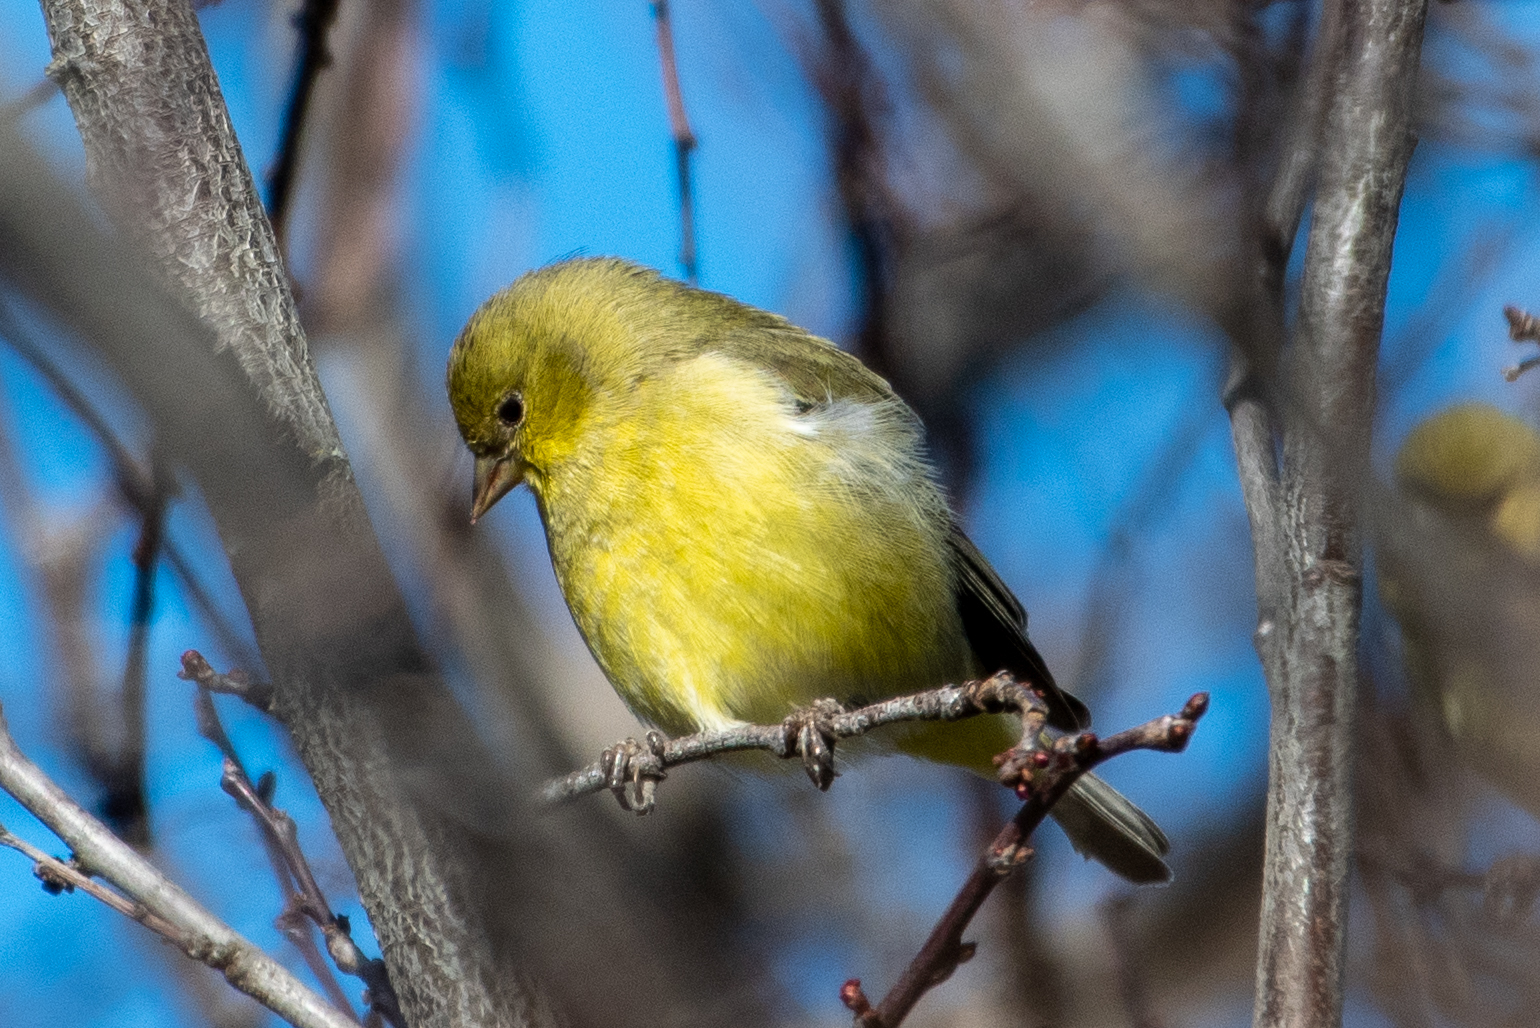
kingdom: Animalia
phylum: Chordata
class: Aves
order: Passeriformes
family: Fringillidae
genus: Spinus
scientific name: Spinus psaltria
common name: Lesser goldfinch
